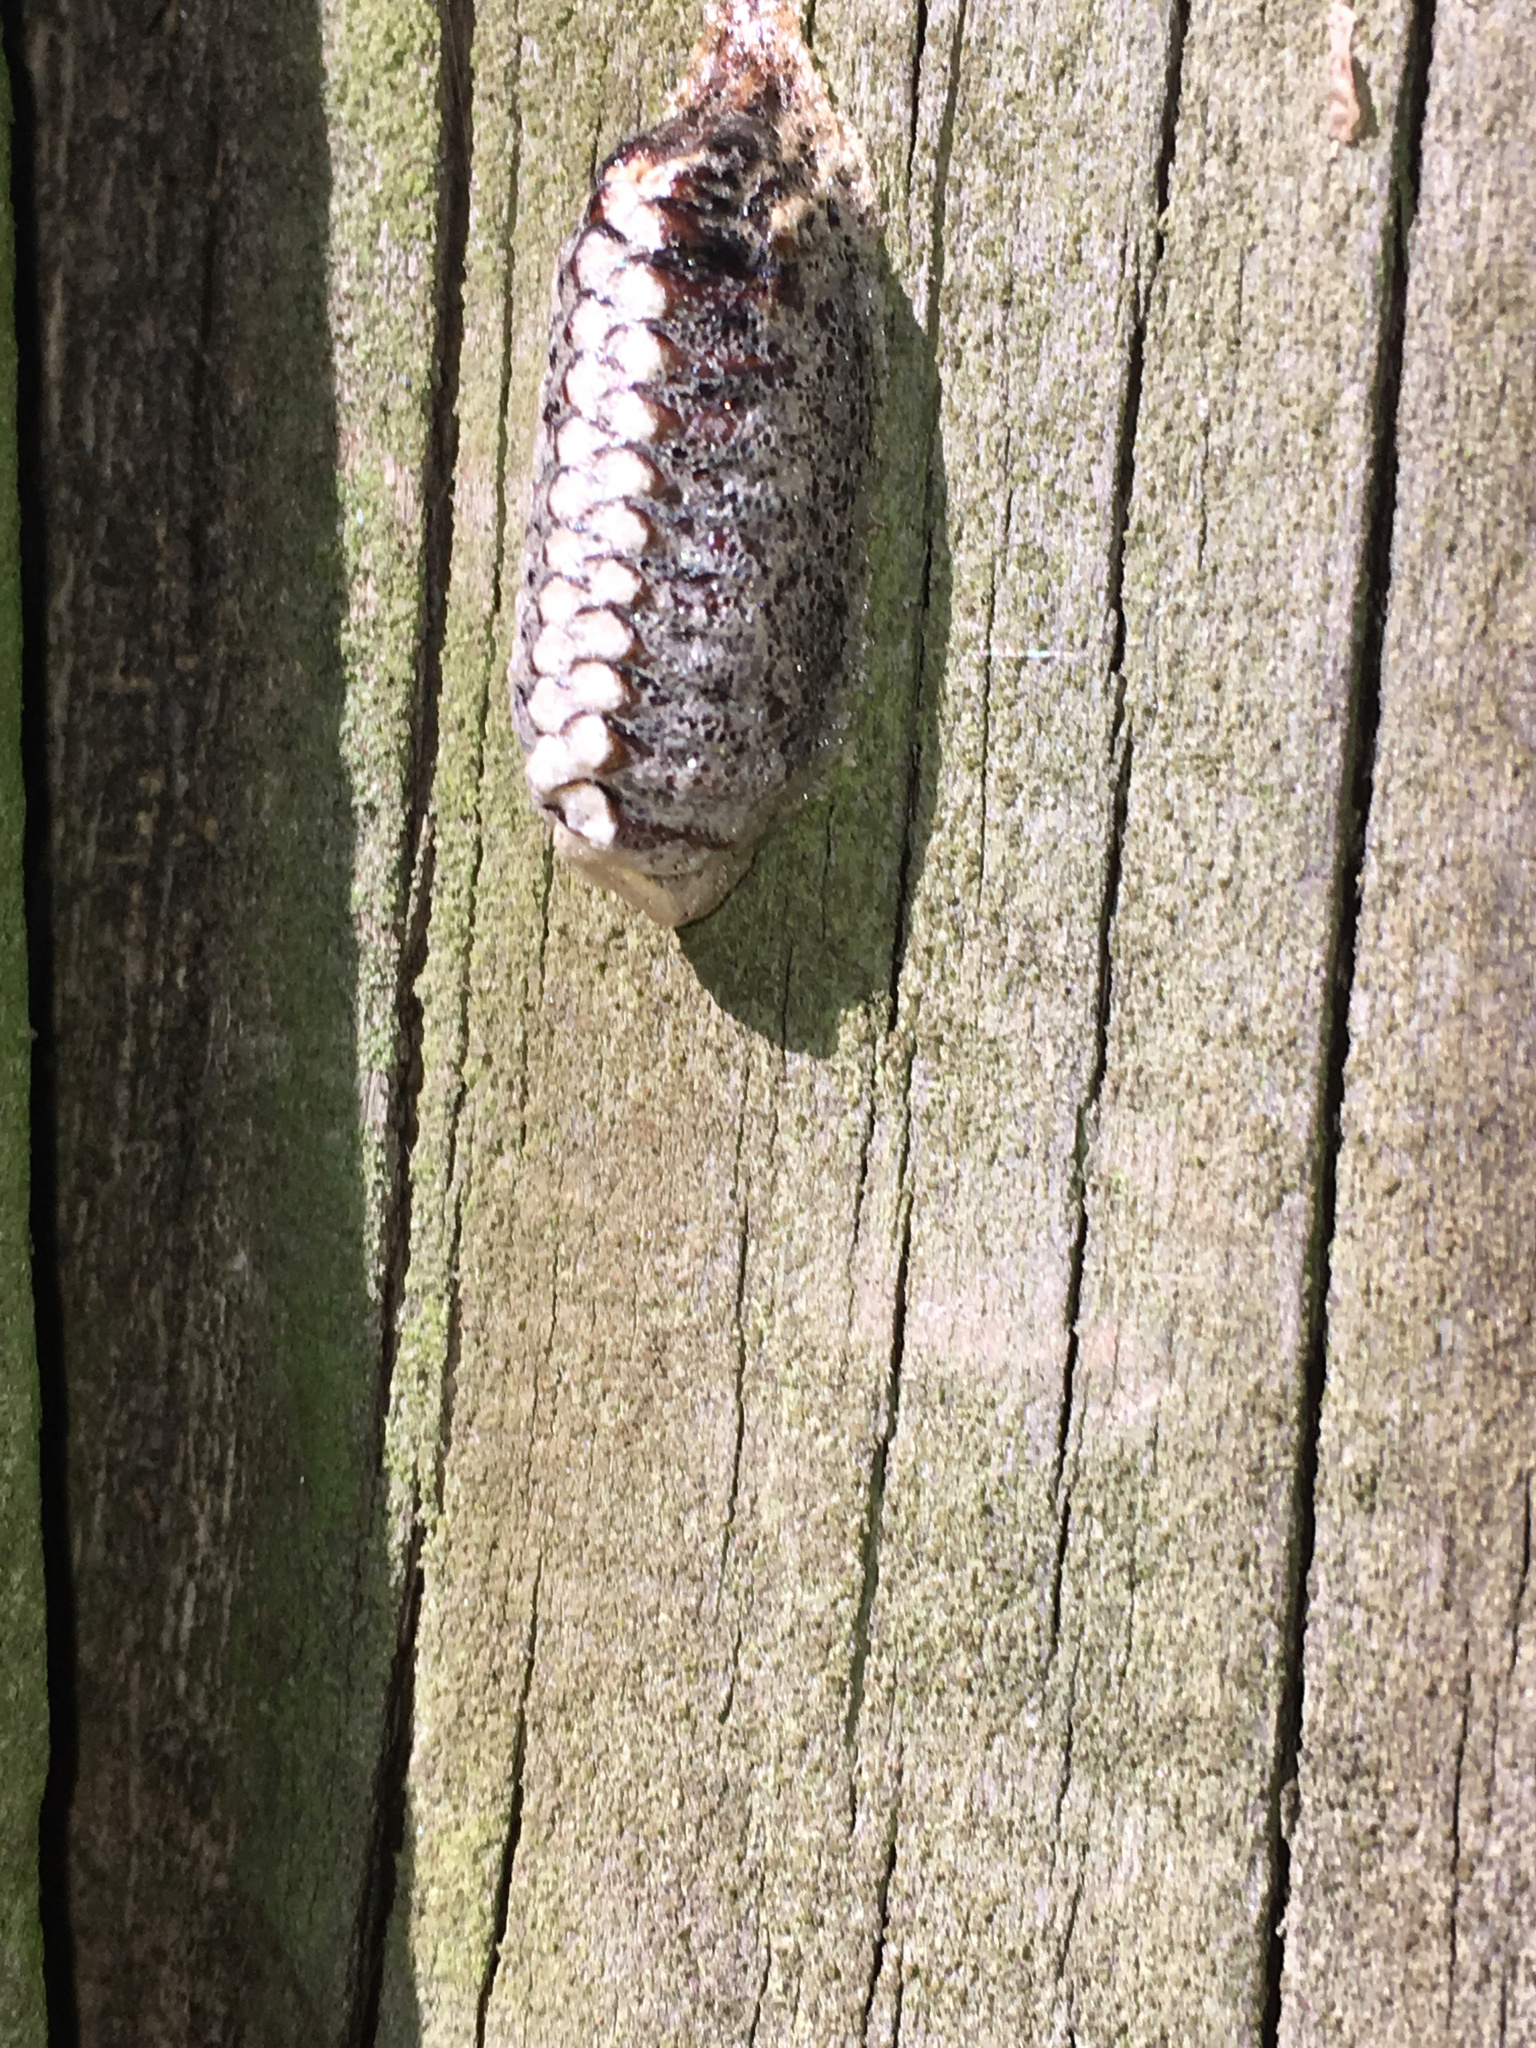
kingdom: Animalia
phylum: Arthropoda
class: Insecta
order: Mantodea
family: Mantidae
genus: Orthodera
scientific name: Orthodera novaezealandiae
